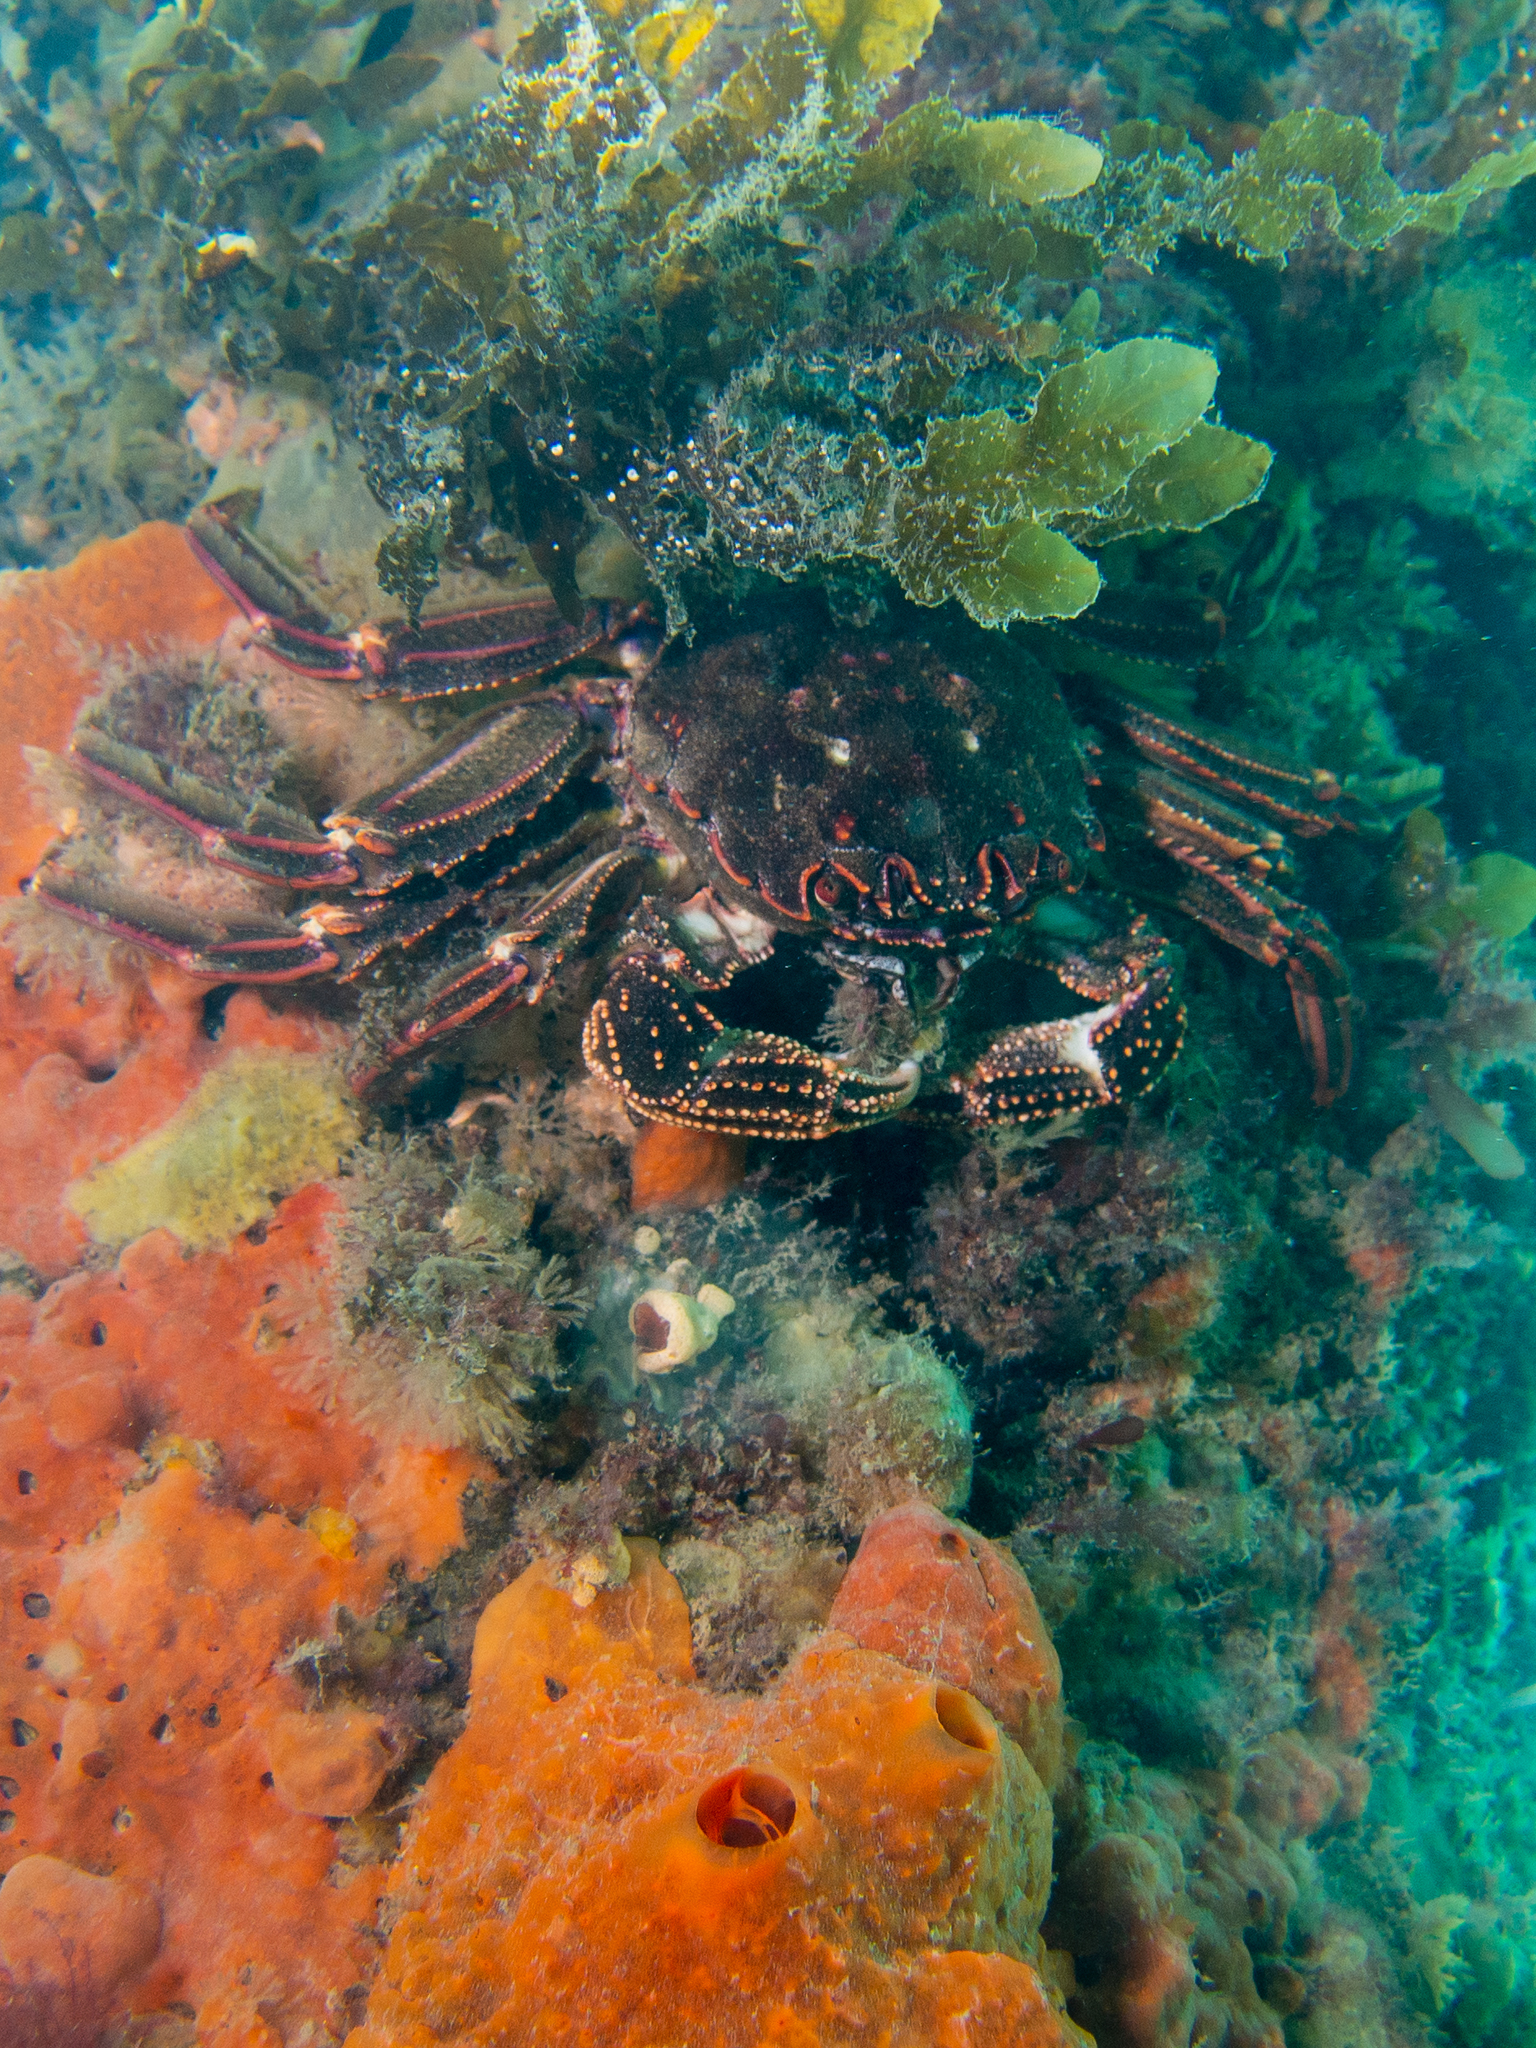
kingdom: Animalia
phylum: Arthropoda
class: Malacostraca
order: Decapoda
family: Plagusiidae
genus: Guinusia
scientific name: Guinusia chabrus
